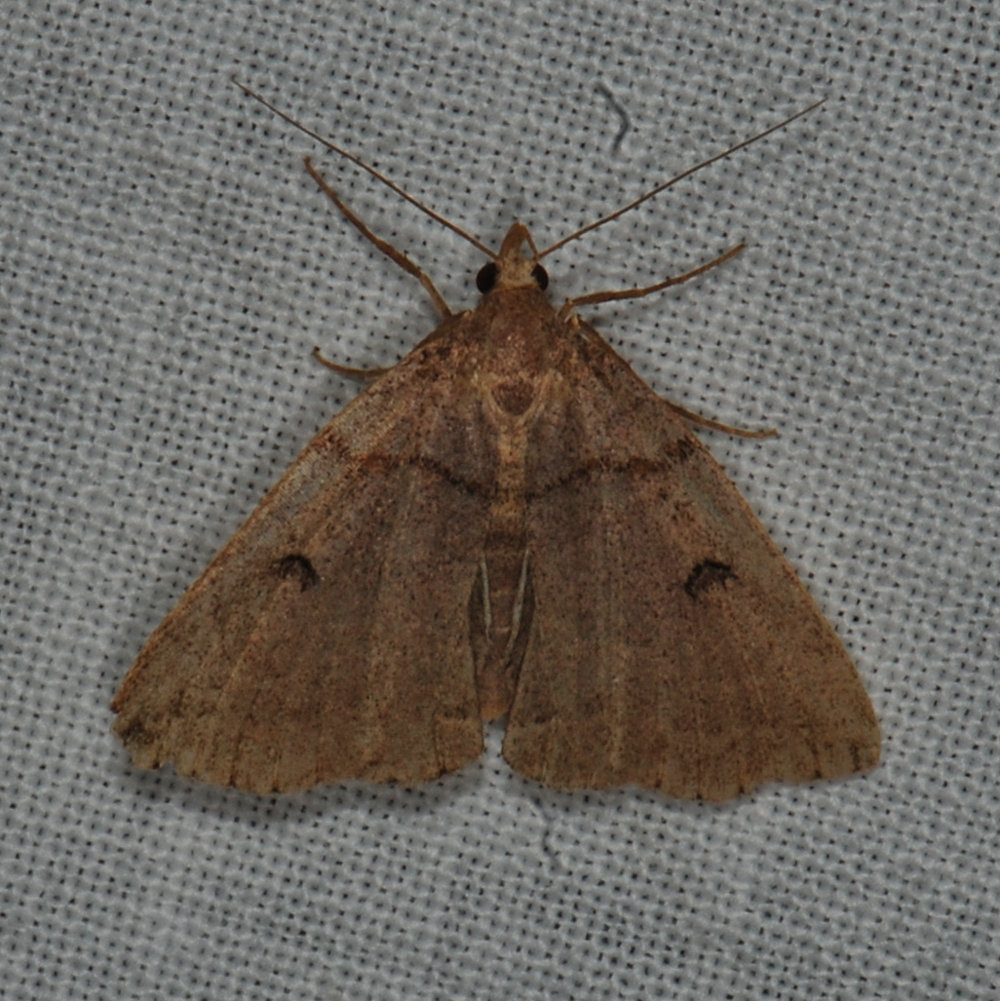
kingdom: Animalia
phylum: Arthropoda
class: Insecta
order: Lepidoptera
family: Erebidae
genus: Zanclognatha
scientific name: Zanclognatha laevigata
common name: Variable fan-foot
